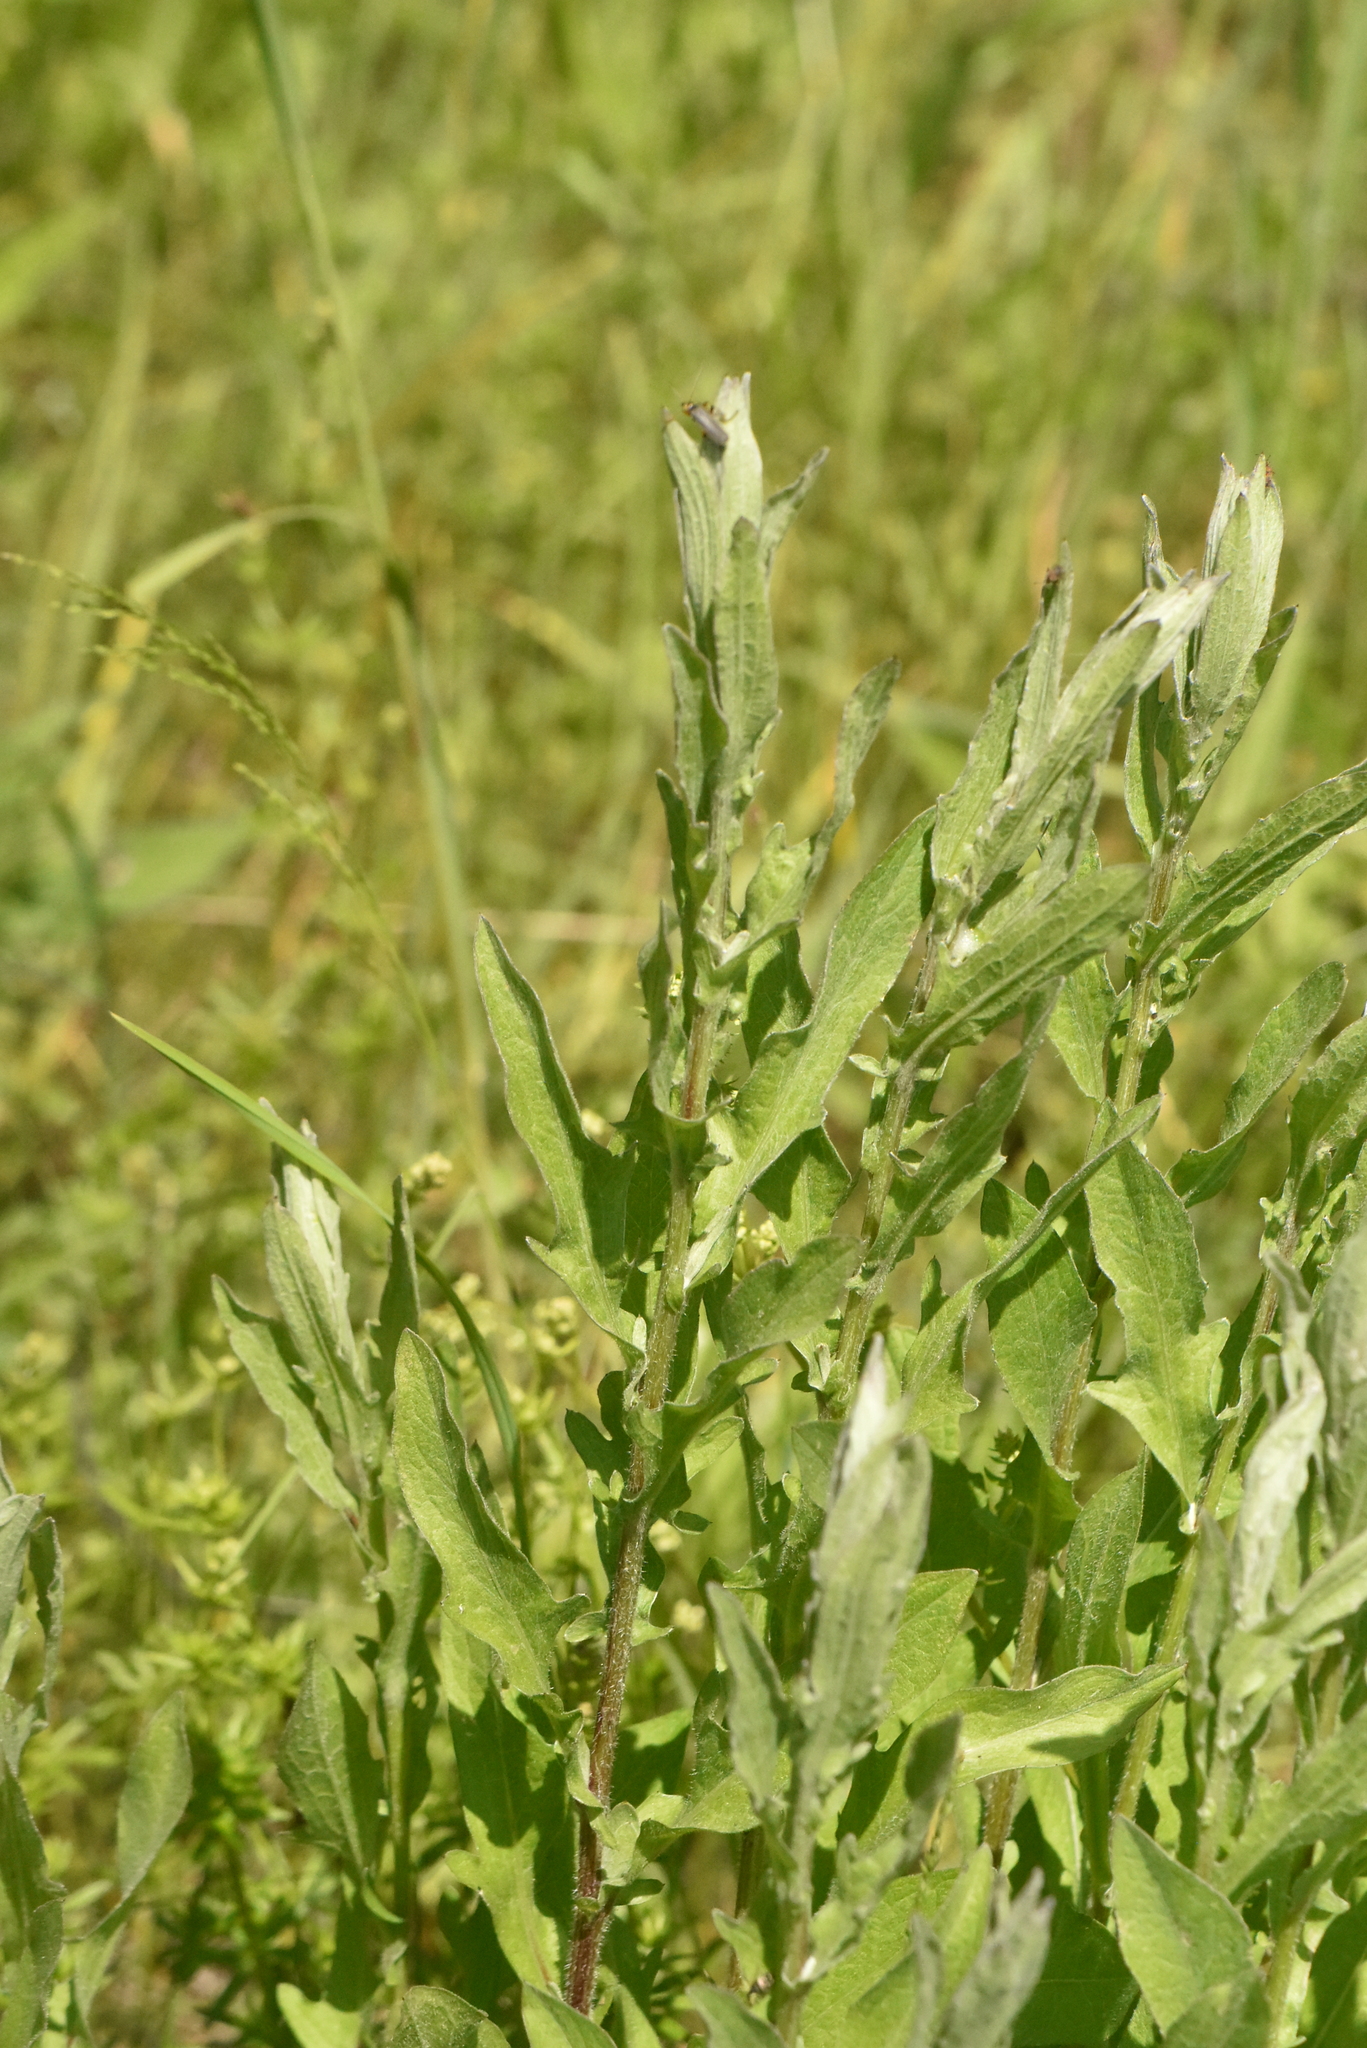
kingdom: Plantae
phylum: Tracheophyta
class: Magnoliopsida
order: Asterales
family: Asteraceae
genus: Centaurea
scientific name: Centaurea jacea
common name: Brown knapweed
